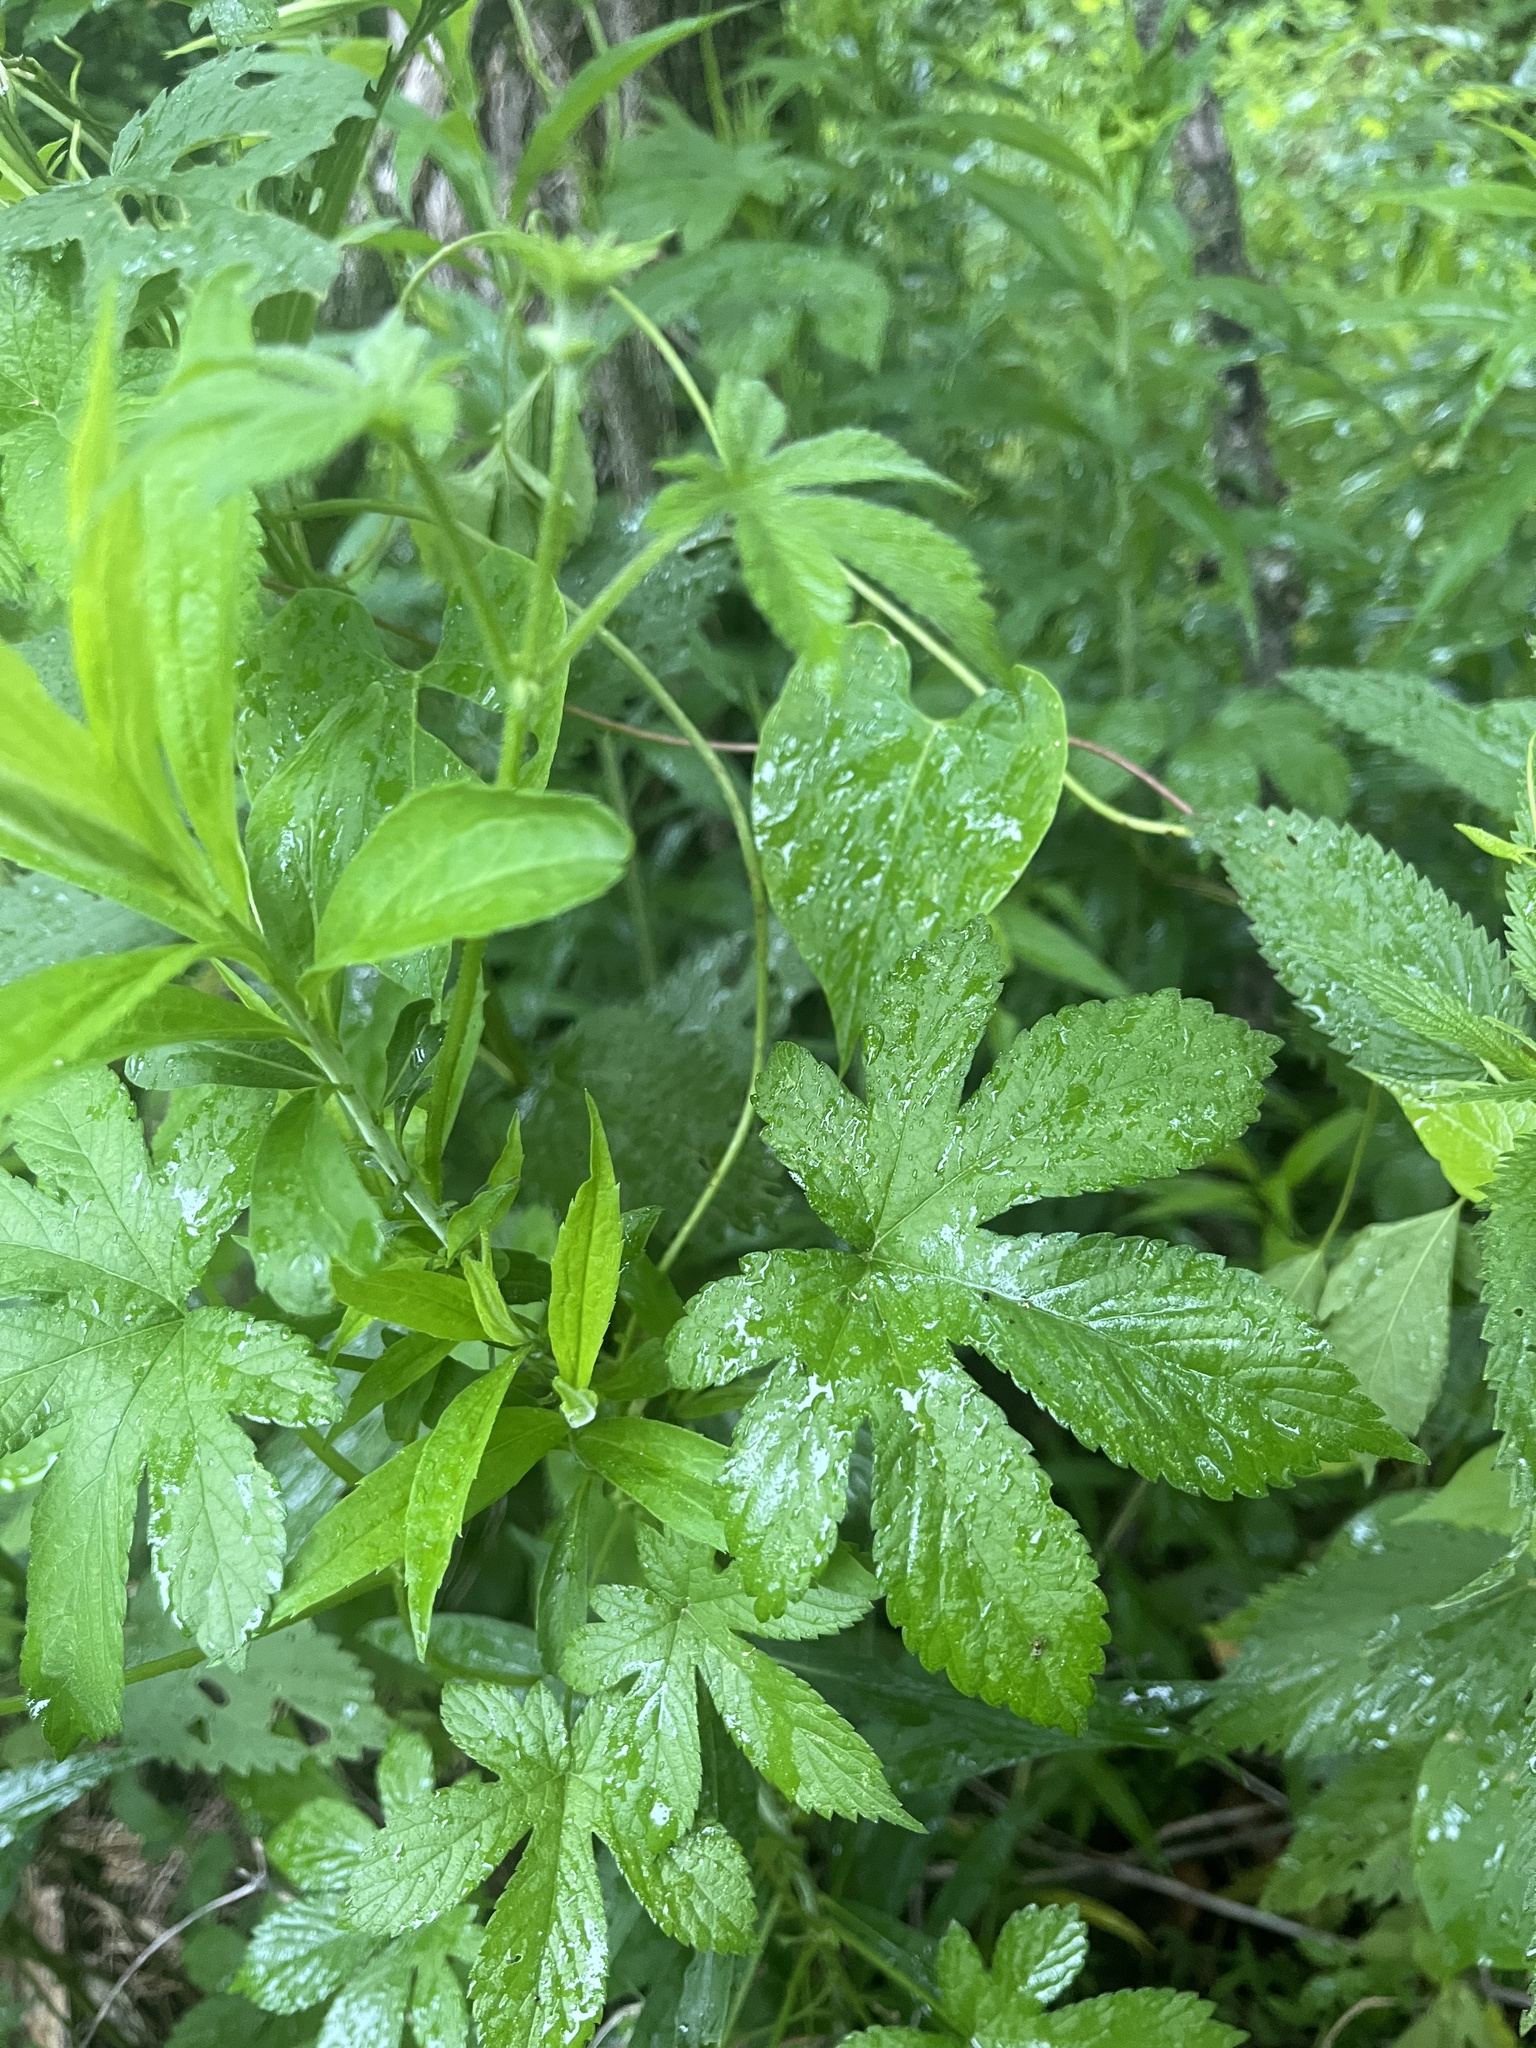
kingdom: Plantae
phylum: Tracheophyta
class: Magnoliopsida
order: Rosales
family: Cannabaceae
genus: Humulus
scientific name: Humulus scandens
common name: Japanese hop
